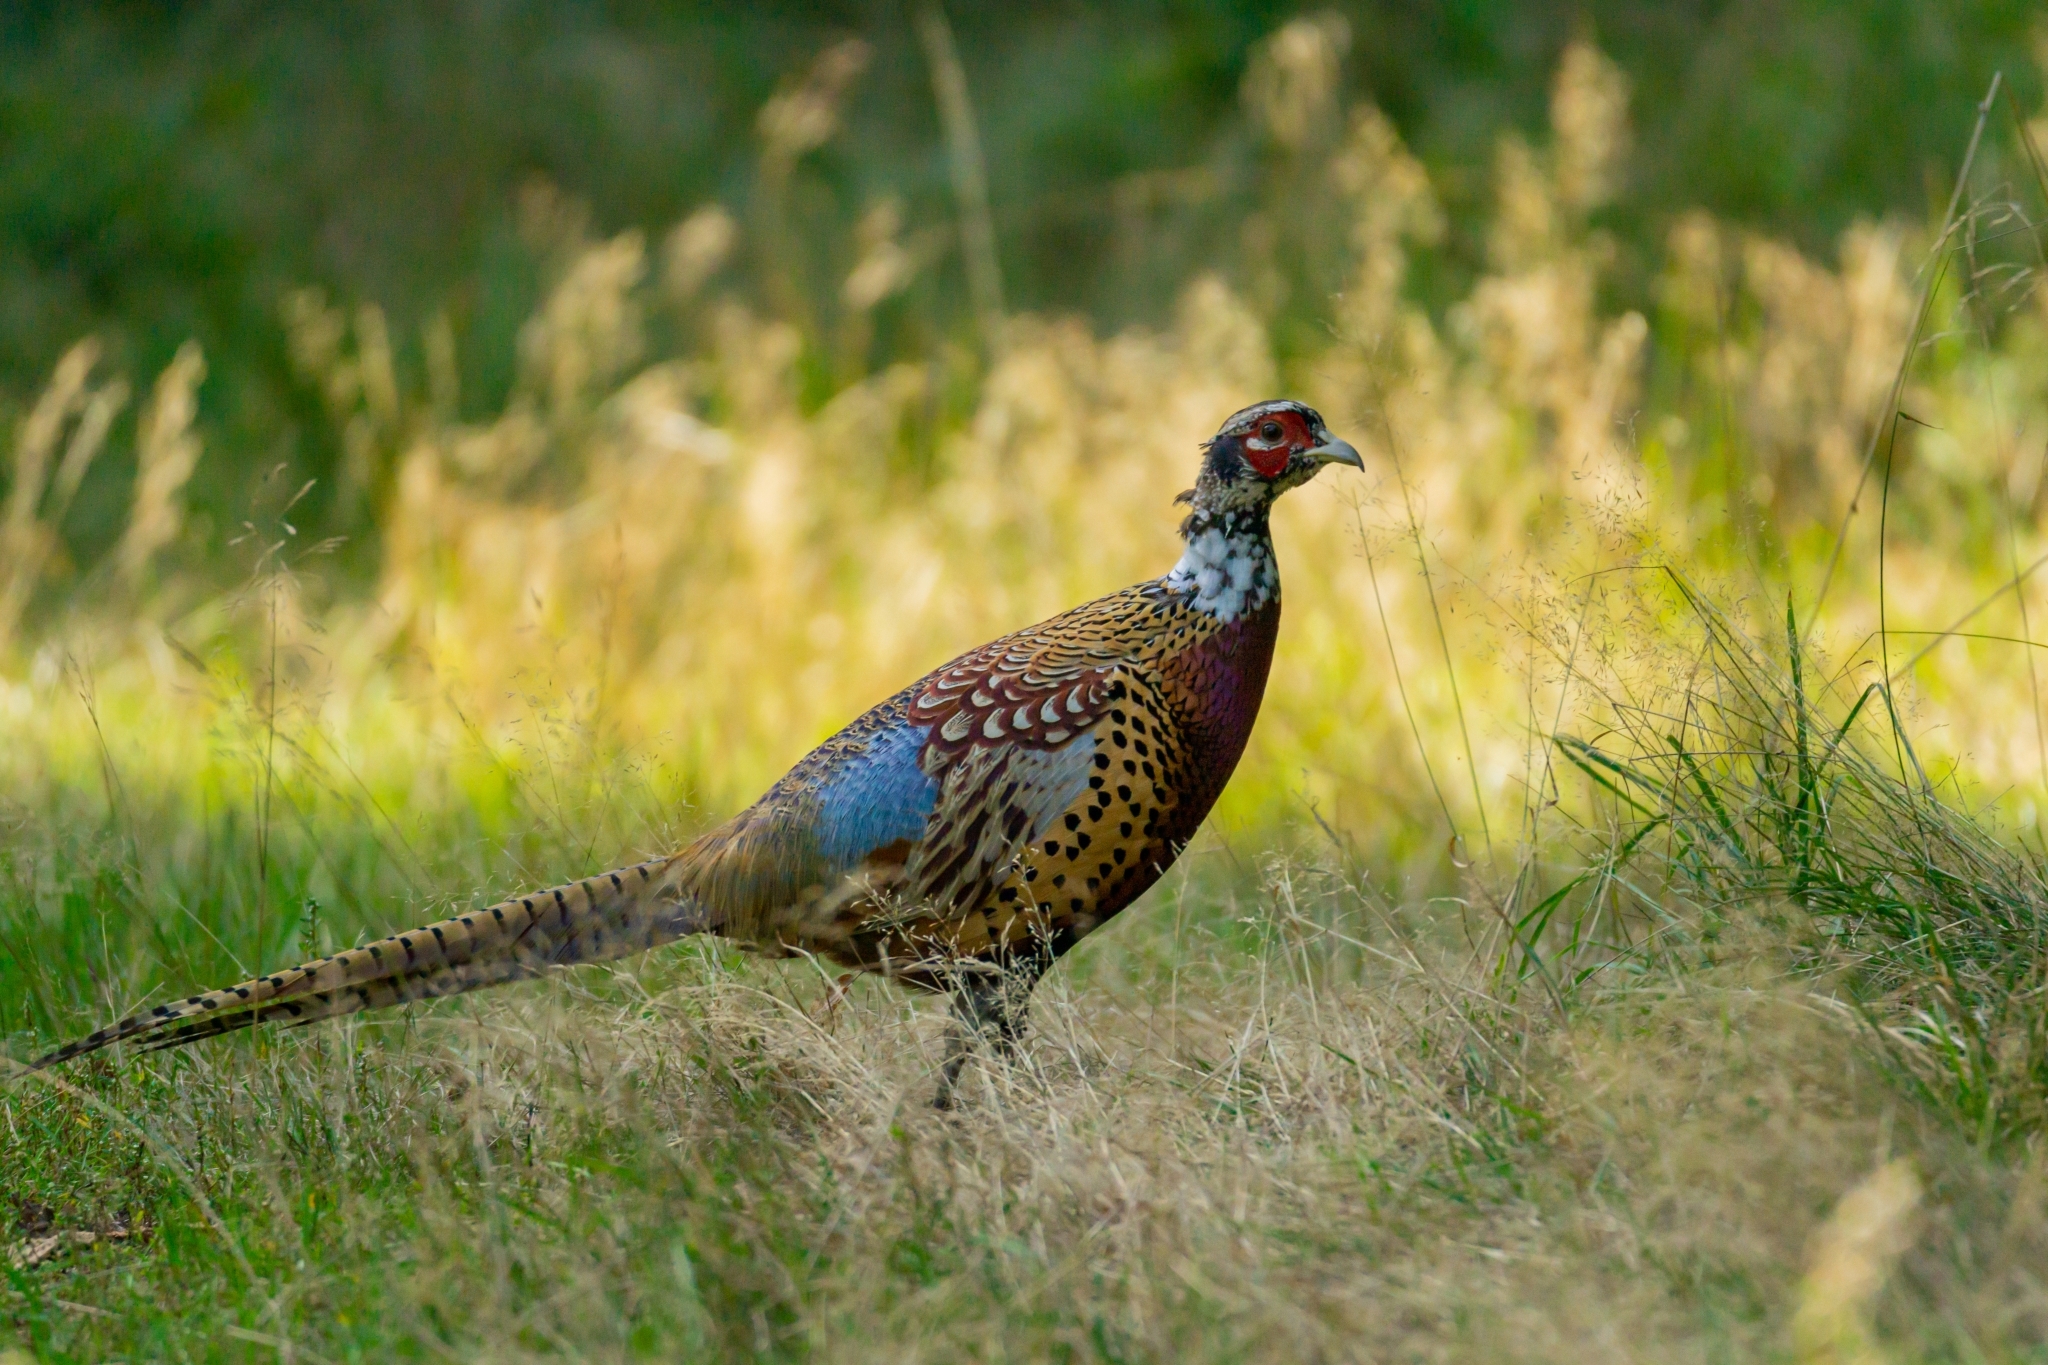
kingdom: Animalia
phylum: Chordata
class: Aves
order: Galliformes
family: Phasianidae
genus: Phasianus
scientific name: Phasianus colchicus
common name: Common pheasant
